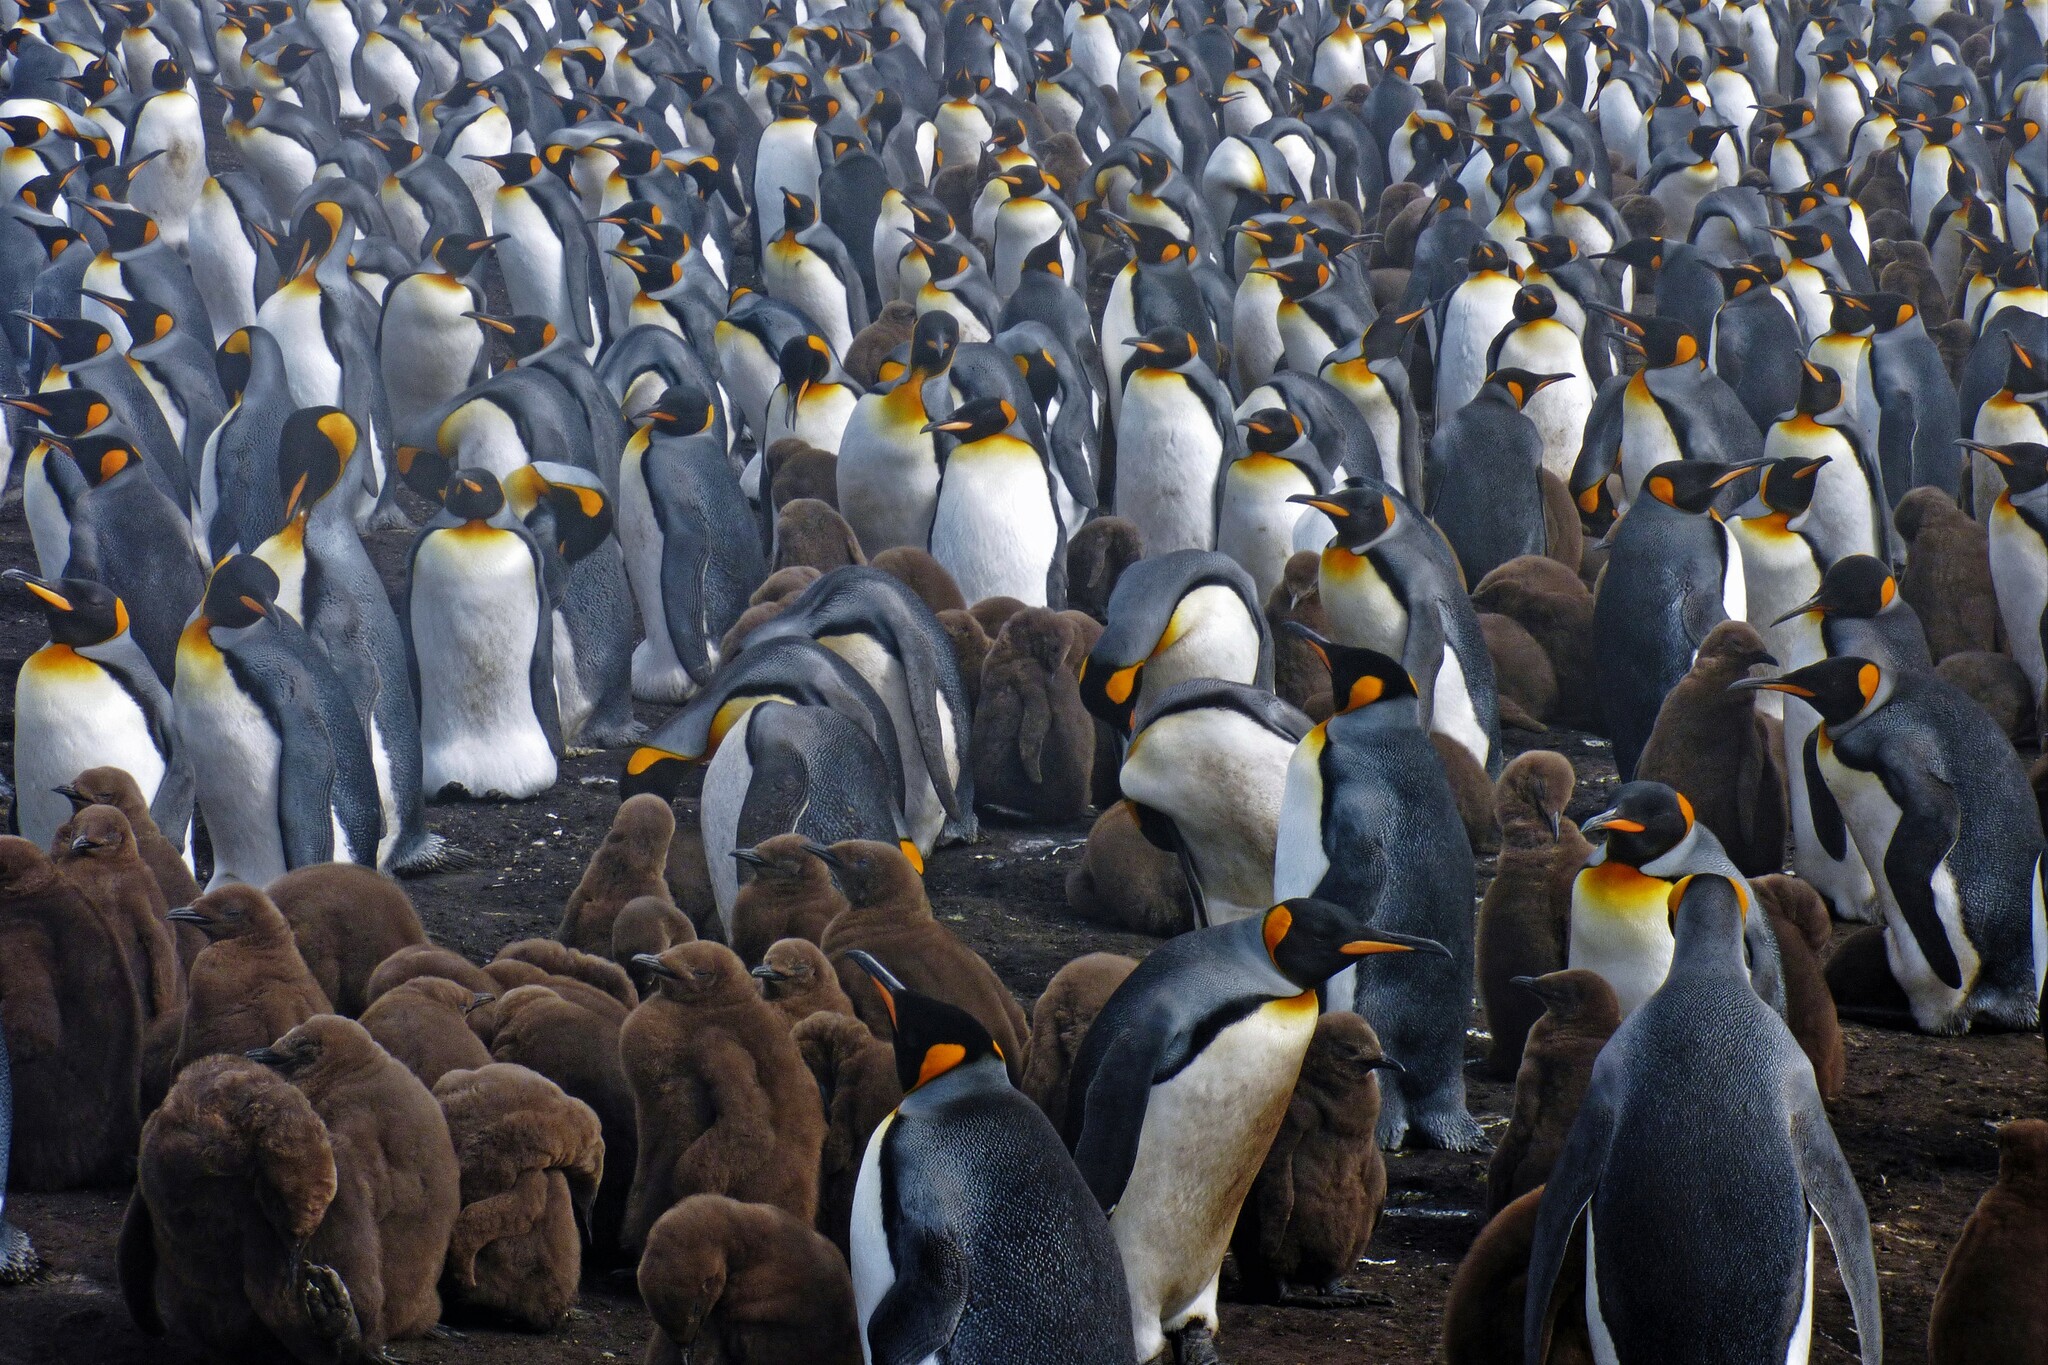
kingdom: Animalia
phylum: Chordata
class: Aves
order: Sphenisciformes
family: Spheniscidae
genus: Aptenodytes
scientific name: Aptenodytes patagonicus
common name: King penguin
